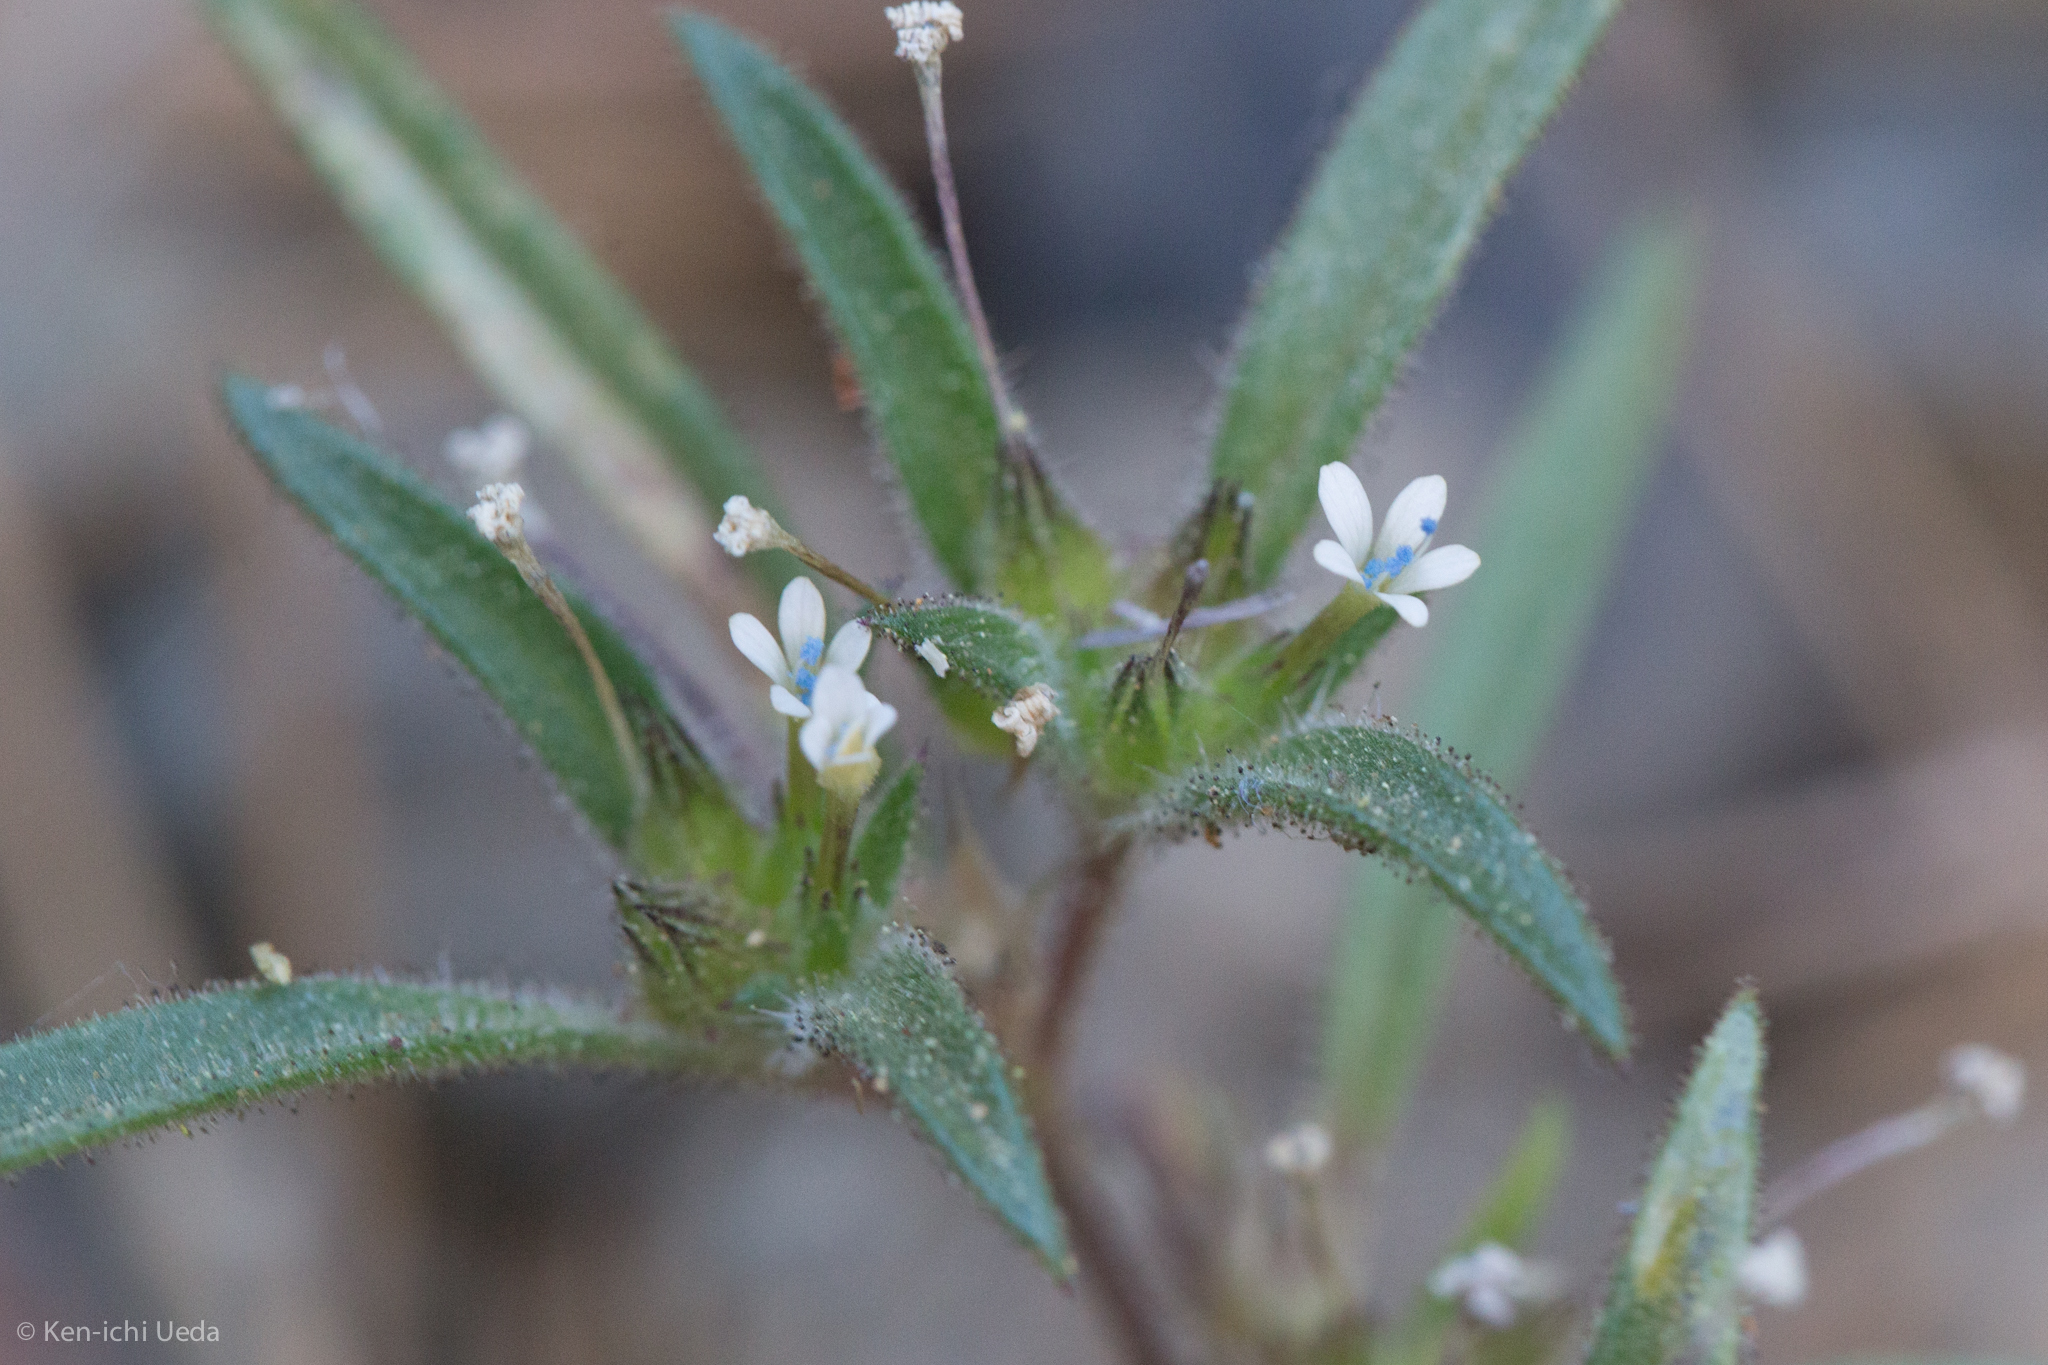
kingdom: Plantae
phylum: Tracheophyta
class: Magnoliopsida
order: Ericales
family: Polemoniaceae
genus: Collomia
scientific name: Collomia tinctoria
